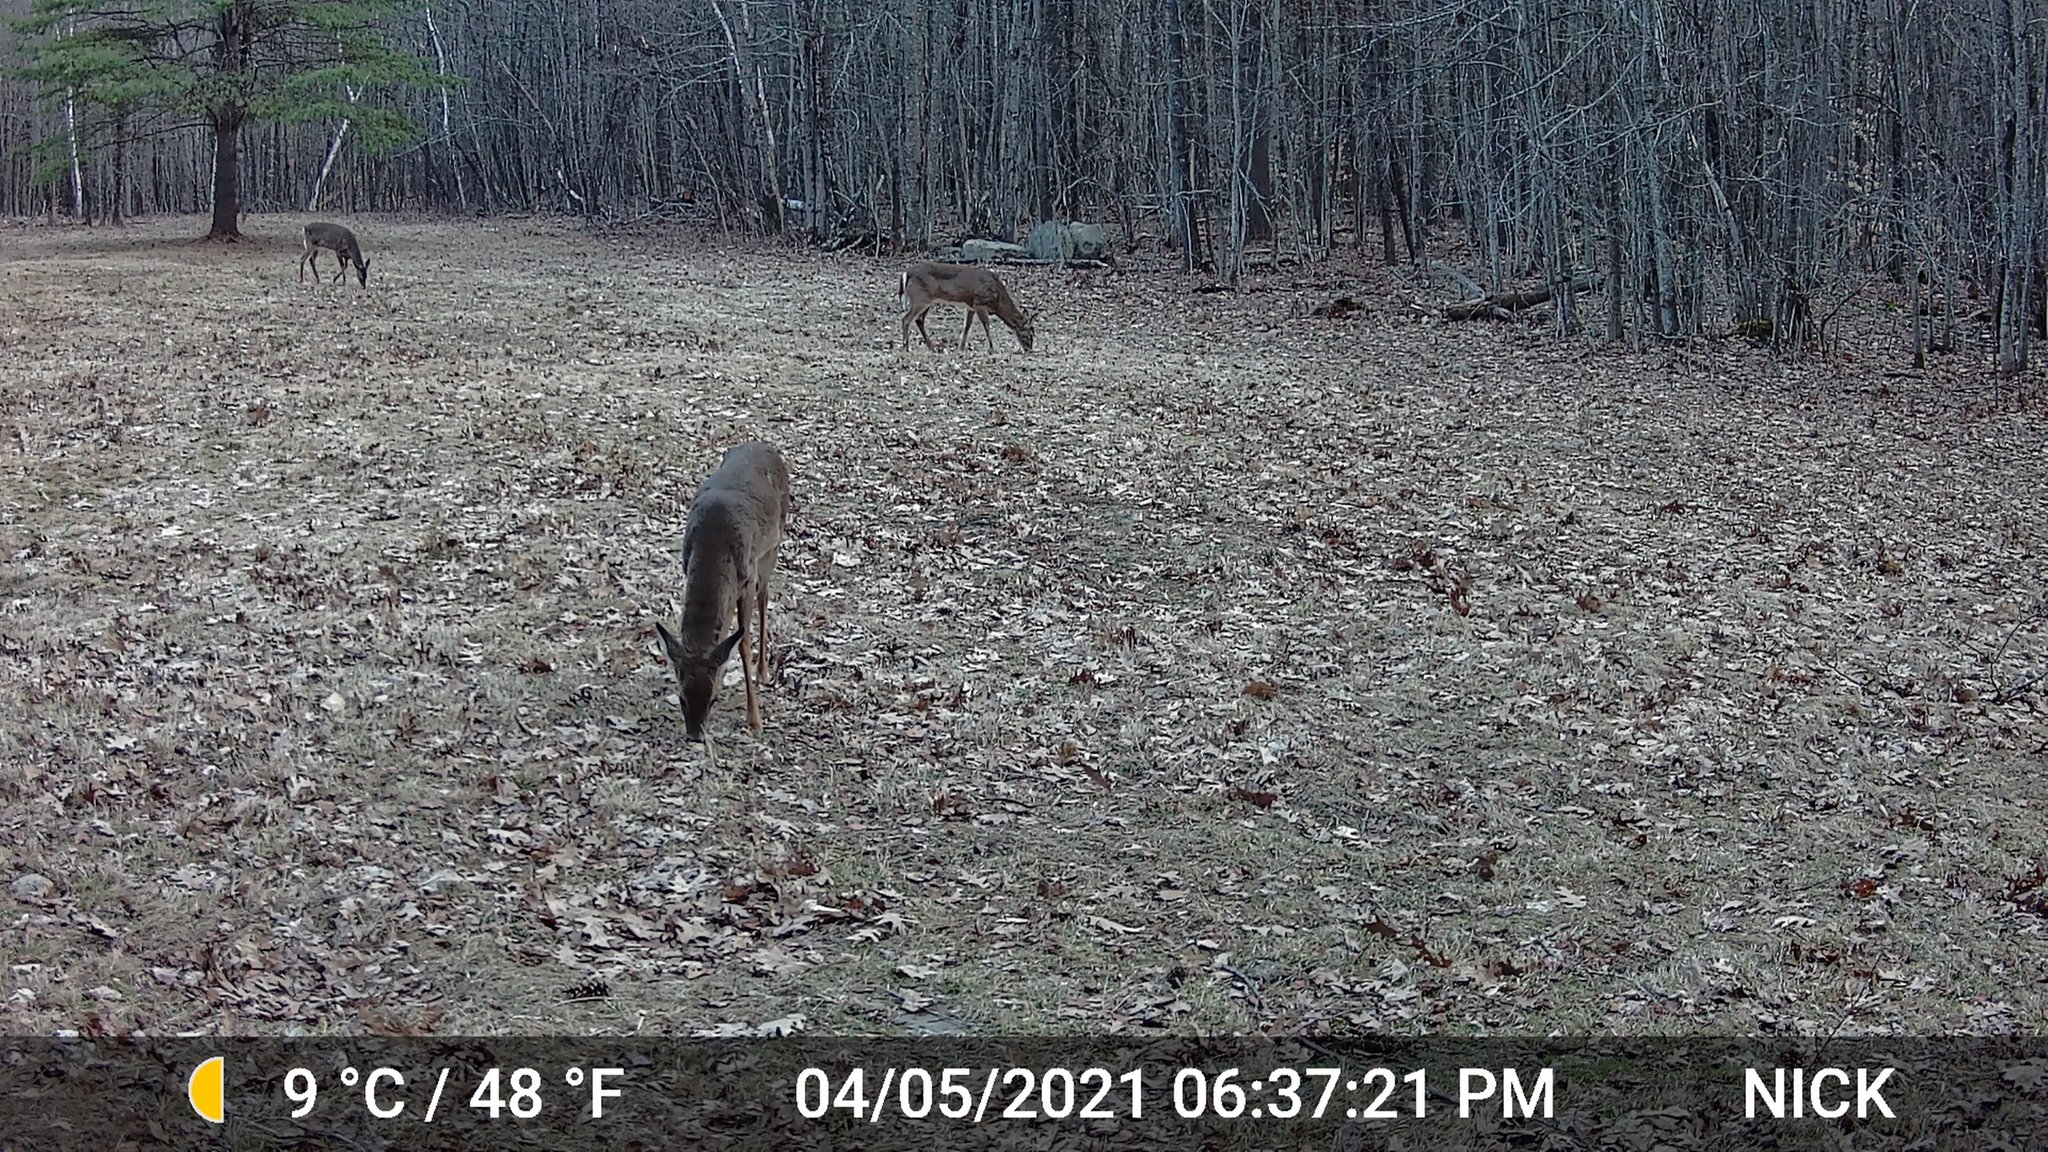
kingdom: Animalia
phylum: Chordata
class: Mammalia
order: Artiodactyla
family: Cervidae
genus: Odocoileus
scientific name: Odocoileus virginianus
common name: White-tailed deer
